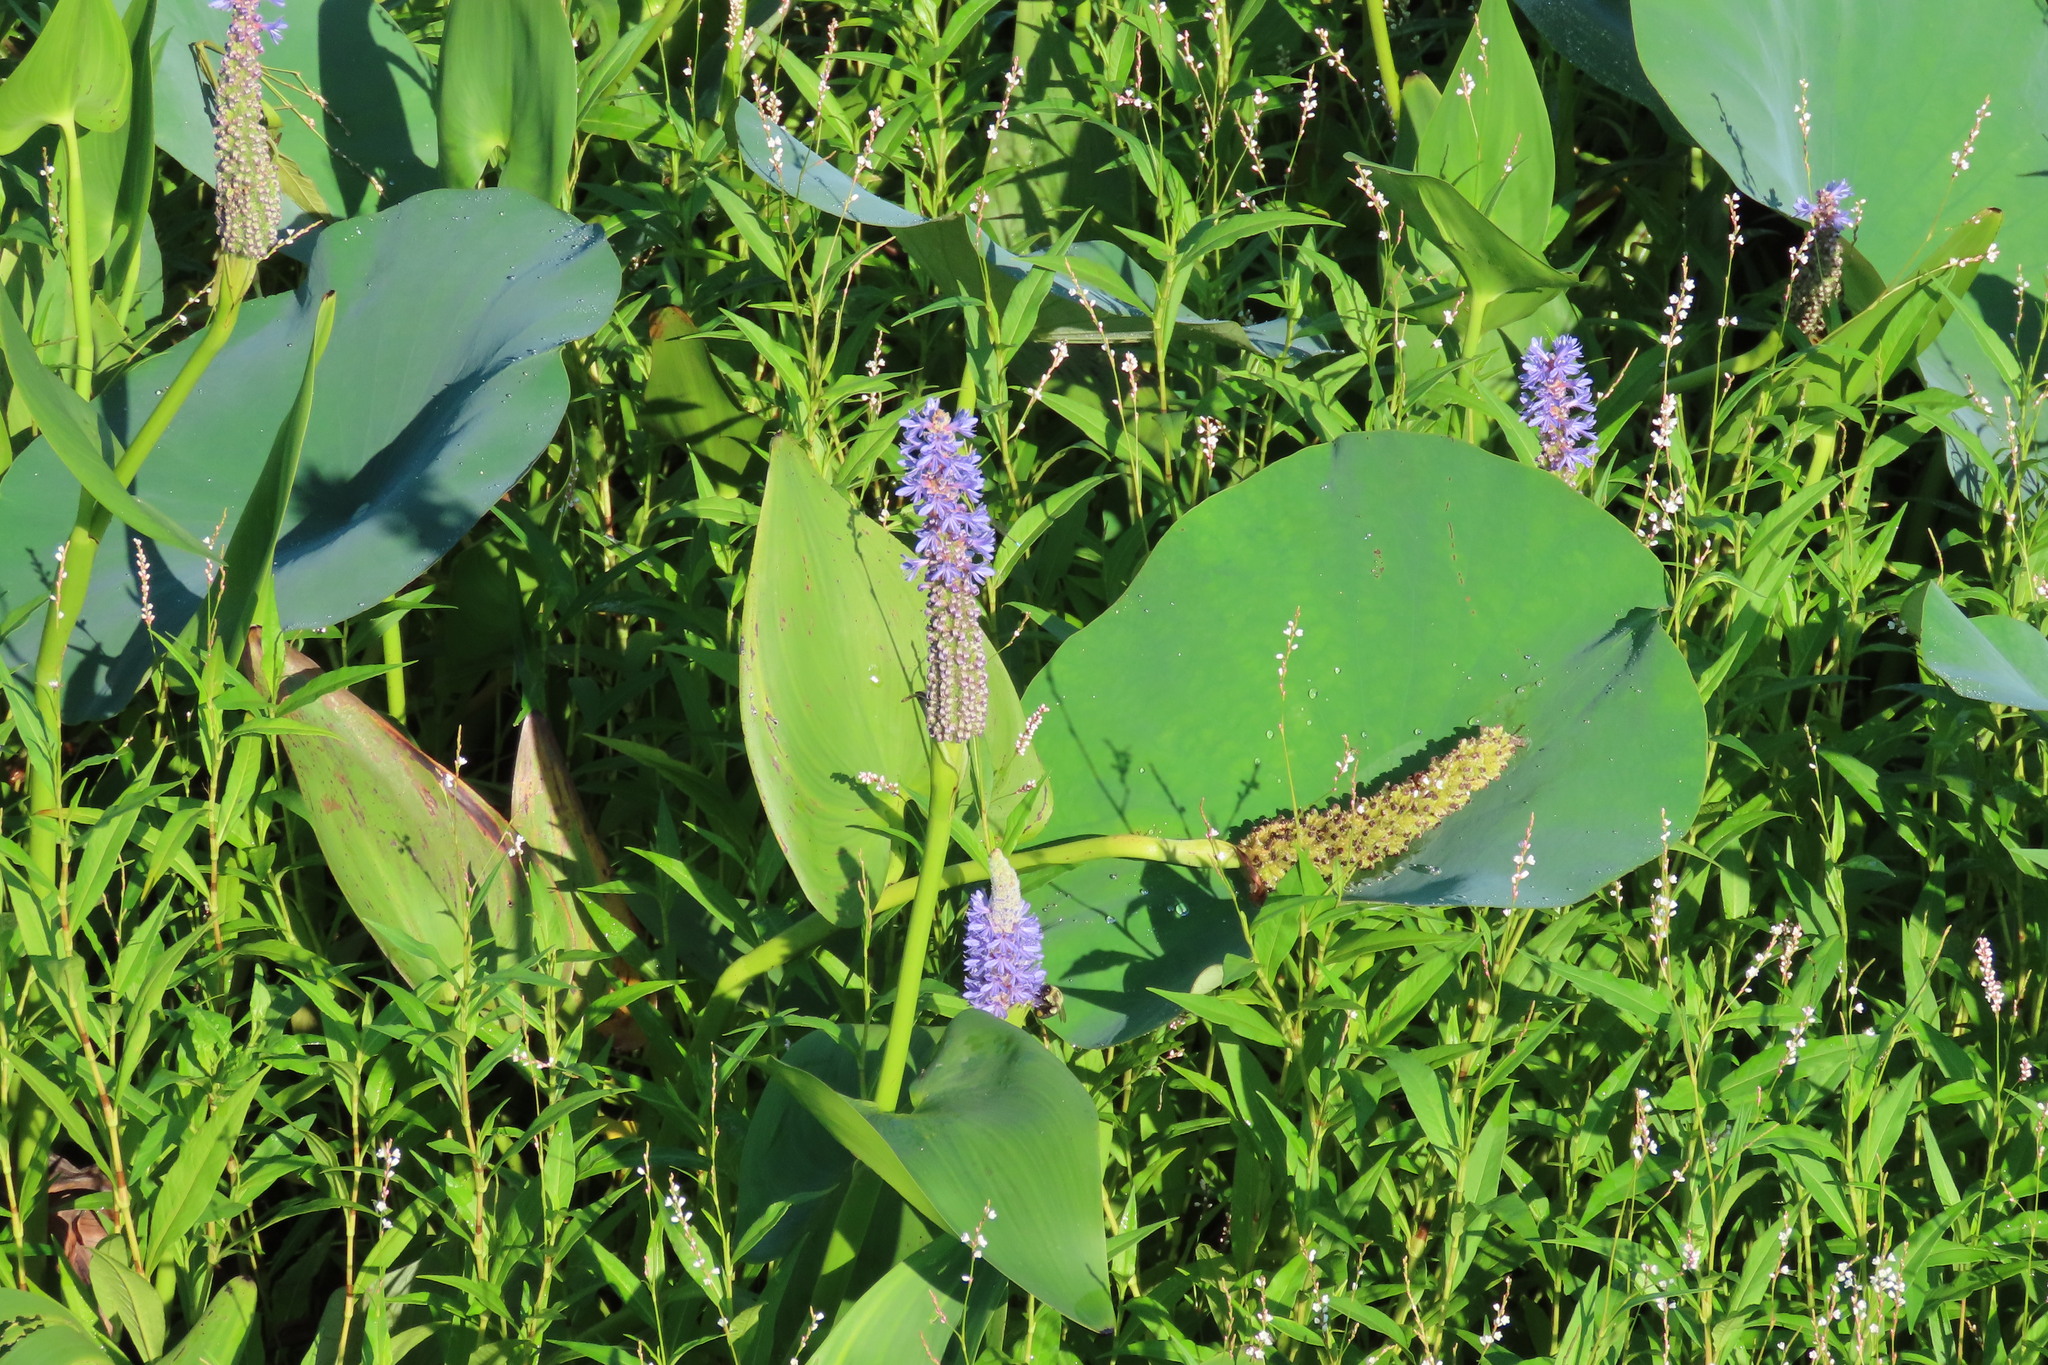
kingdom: Plantae
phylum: Tracheophyta
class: Liliopsida
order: Commelinales
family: Pontederiaceae
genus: Pontederia
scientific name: Pontederia cordata
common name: Pickerelweed
